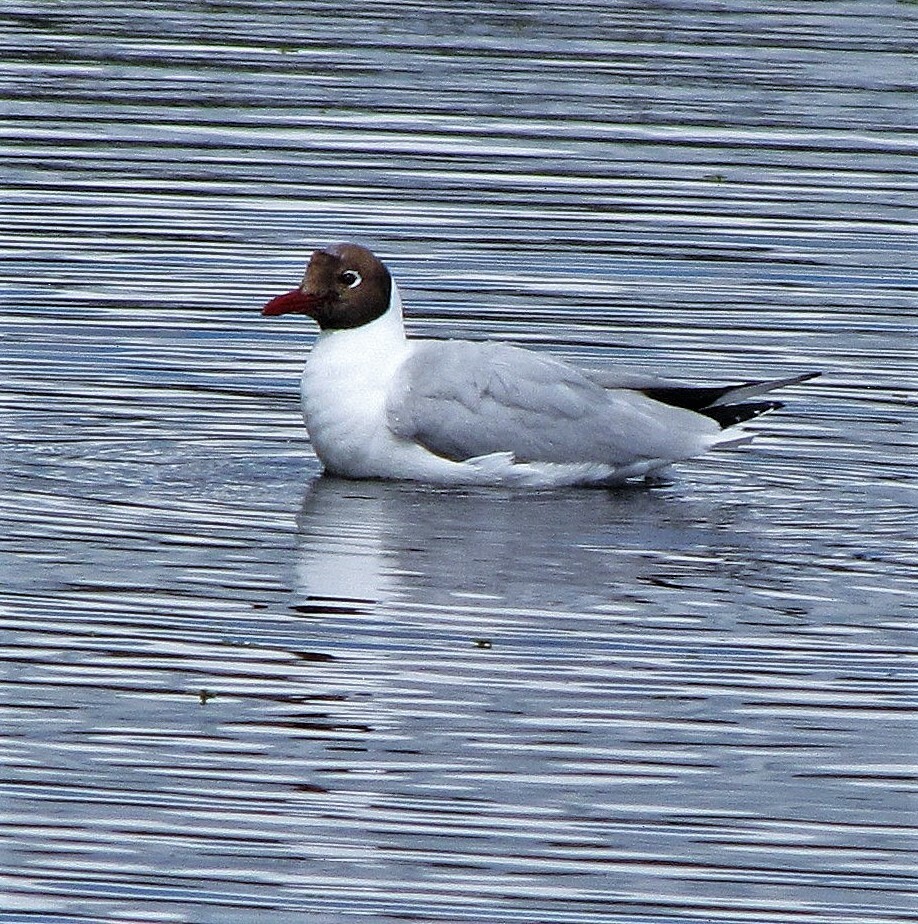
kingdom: Animalia
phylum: Chordata
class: Aves
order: Charadriiformes
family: Laridae
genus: Chroicocephalus
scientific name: Chroicocephalus maculipennis
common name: Brown-hooded gull
